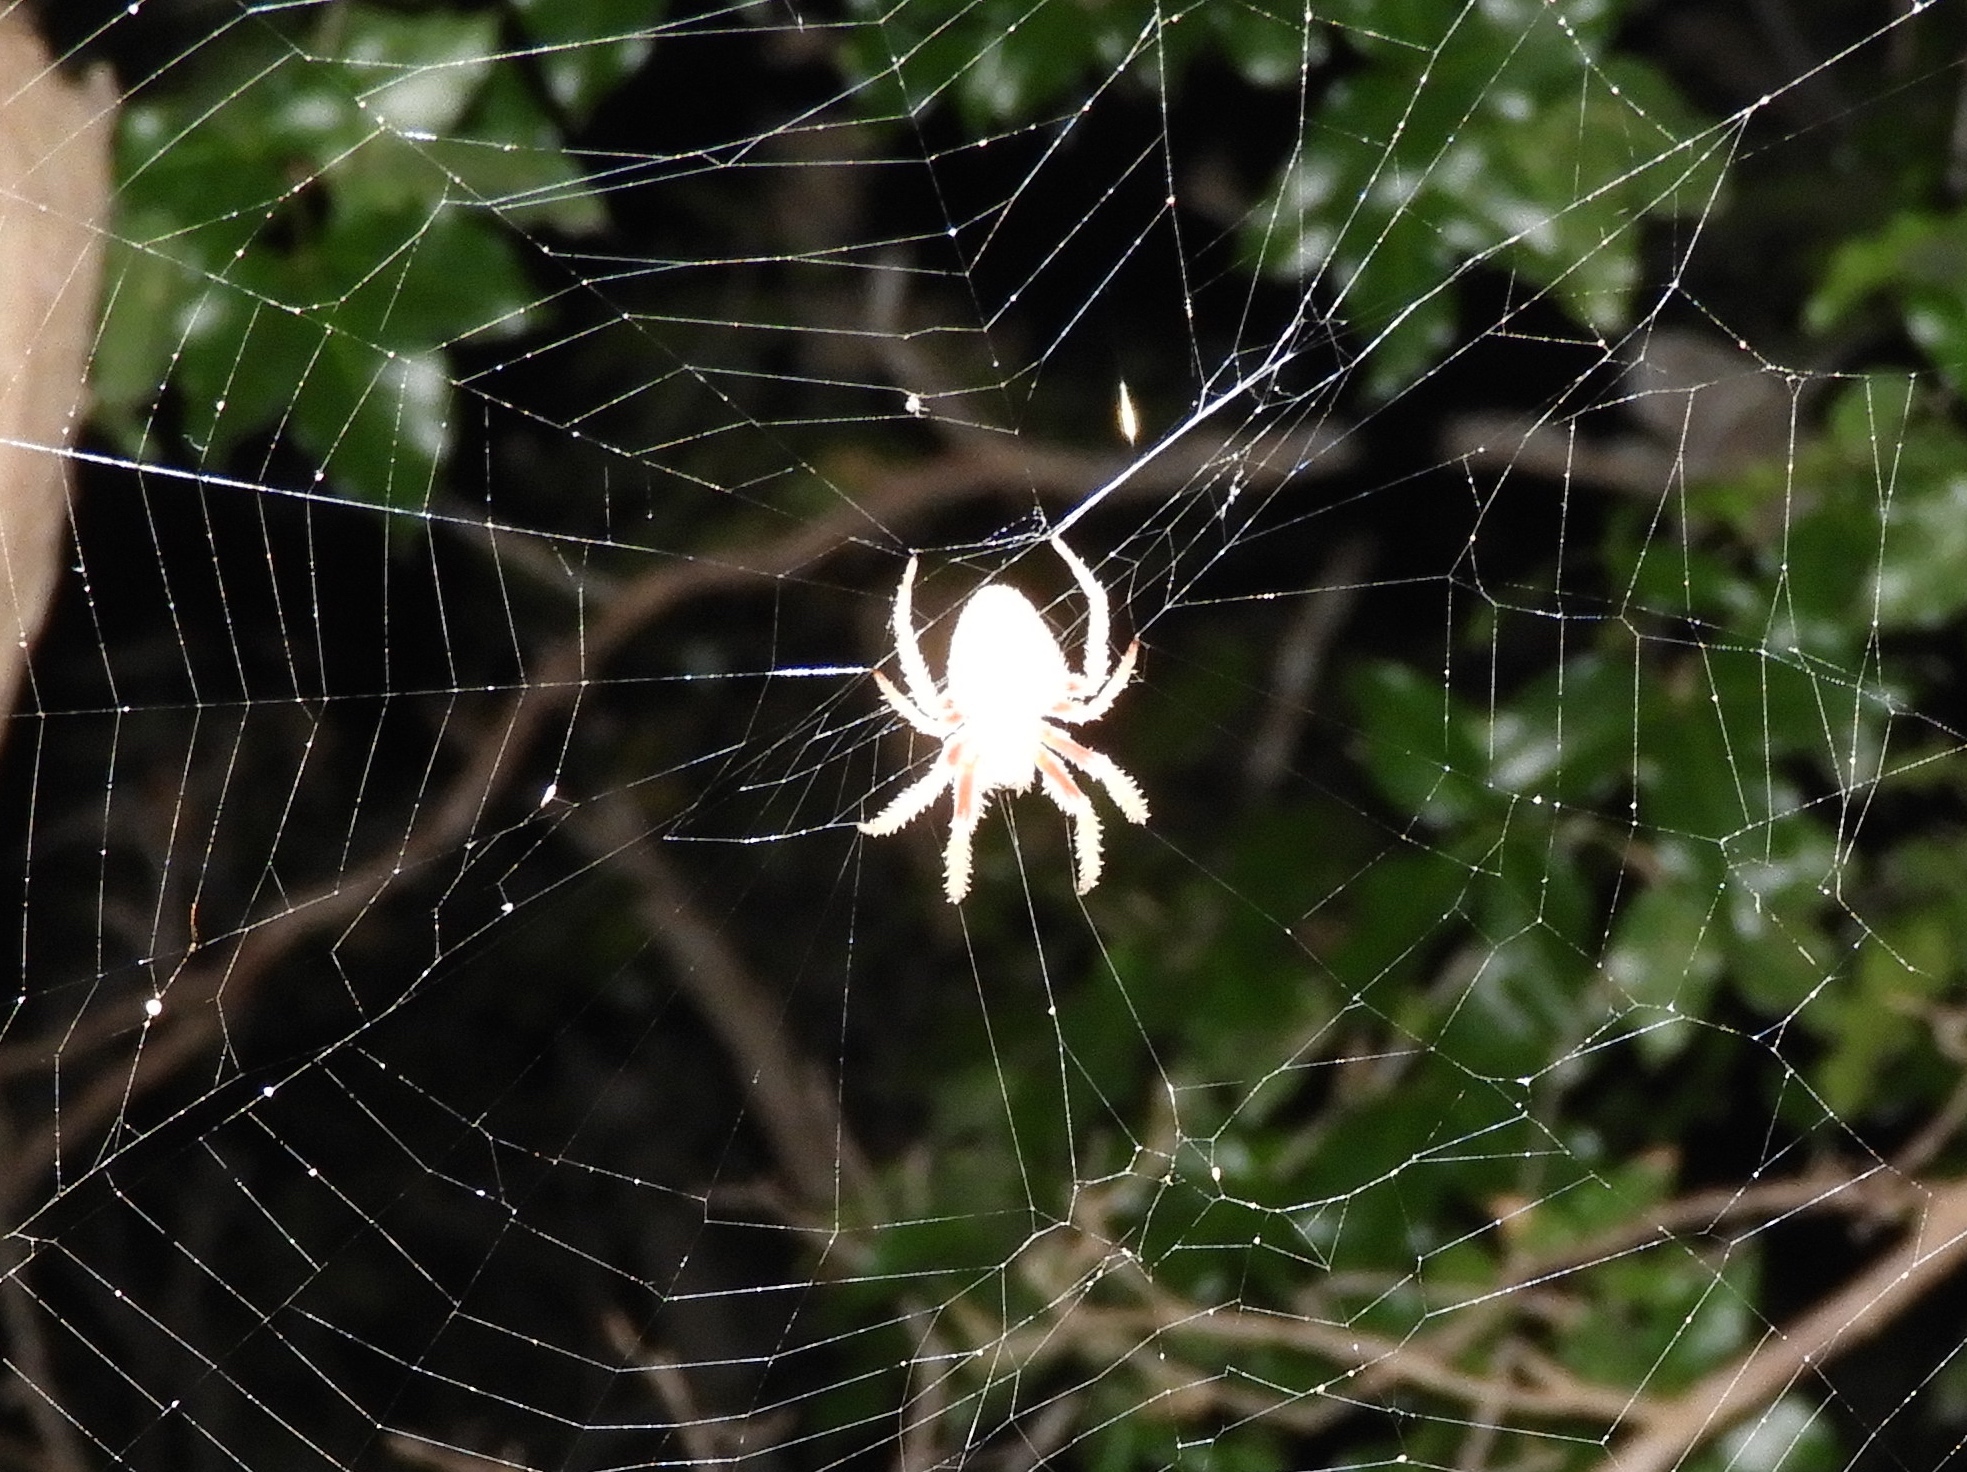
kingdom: Animalia
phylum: Arthropoda
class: Arachnida
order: Araneae
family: Araneidae
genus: Eriophora
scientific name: Eriophora
